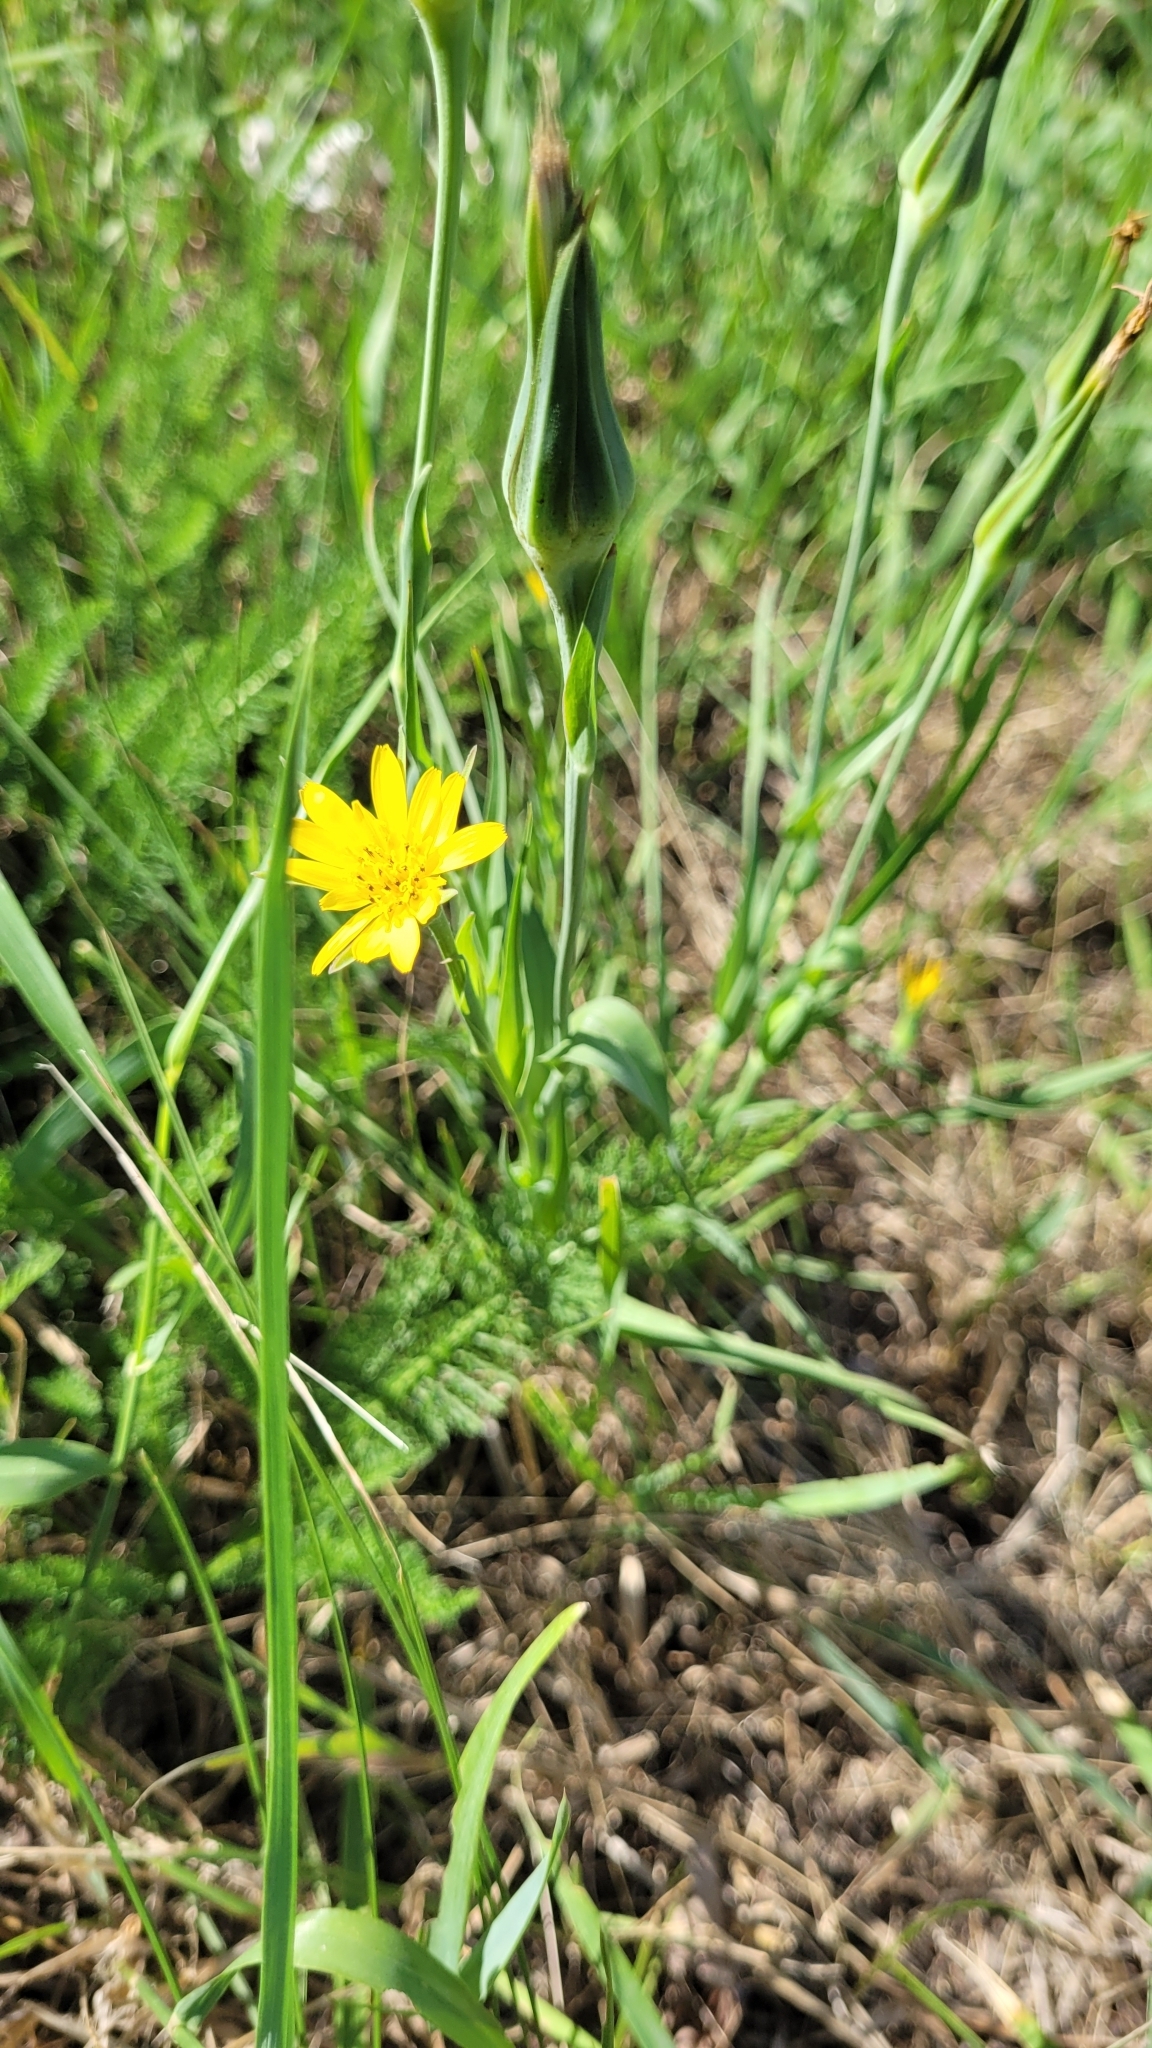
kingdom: Plantae
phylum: Tracheophyta
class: Magnoliopsida
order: Asterales
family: Asteraceae
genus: Tragopogon
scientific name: Tragopogon pratensis
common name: Goat's-beard
